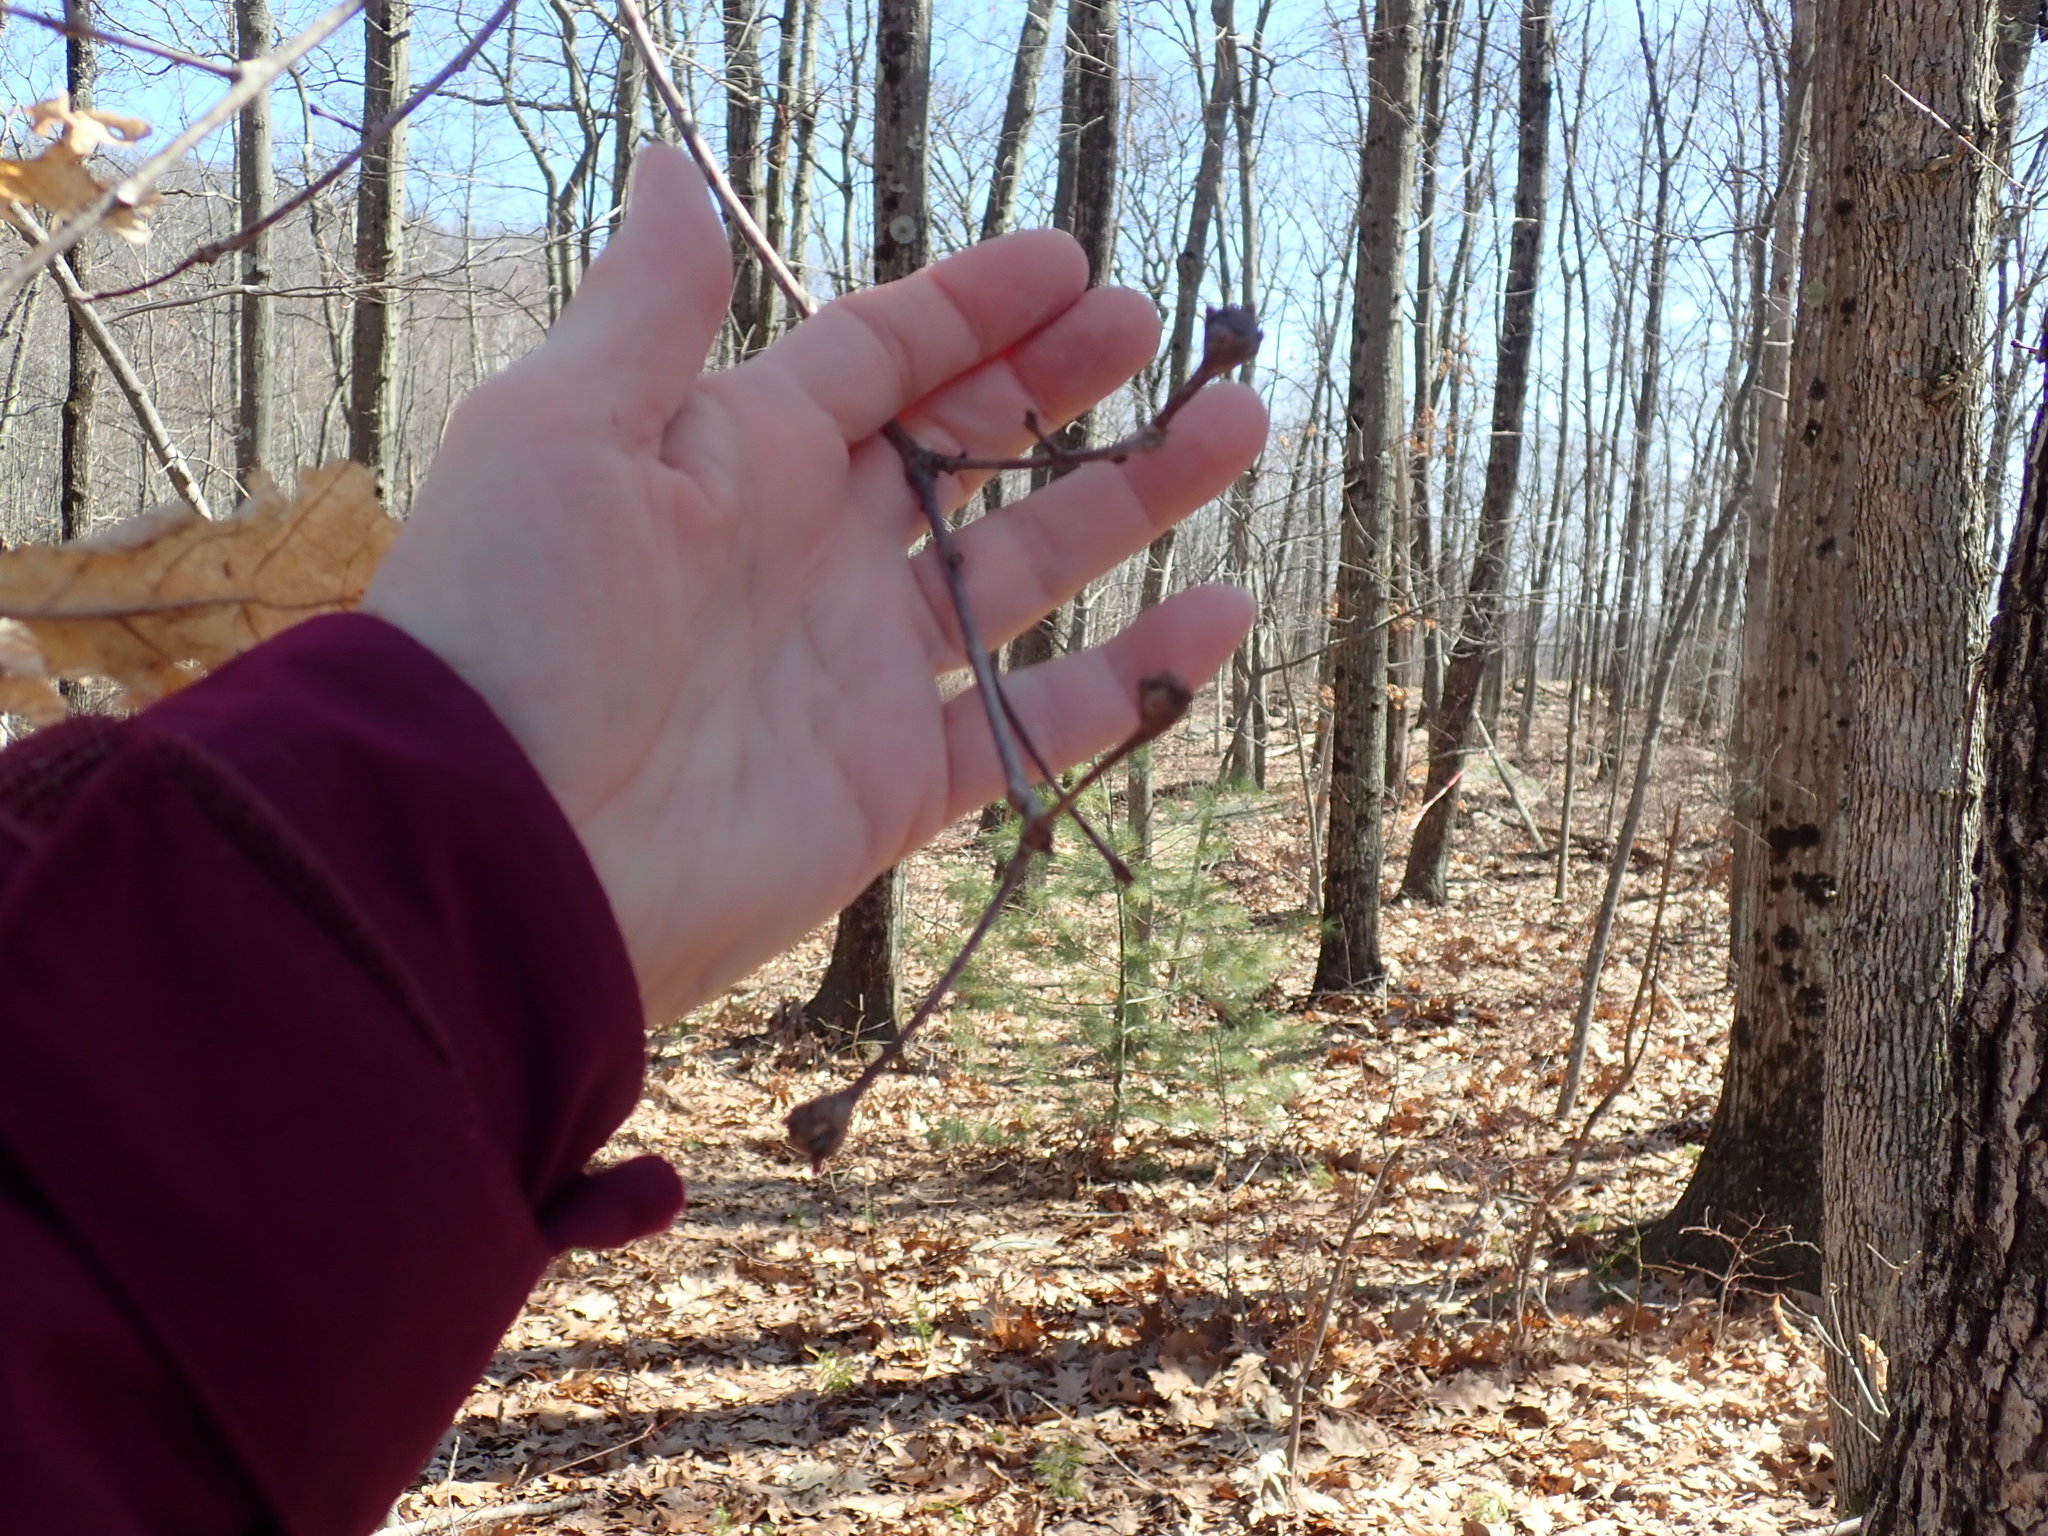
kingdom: Animalia
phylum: Arthropoda
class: Insecta
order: Hymenoptera
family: Cynipidae
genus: Callirhytis
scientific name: Callirhytis clavula
